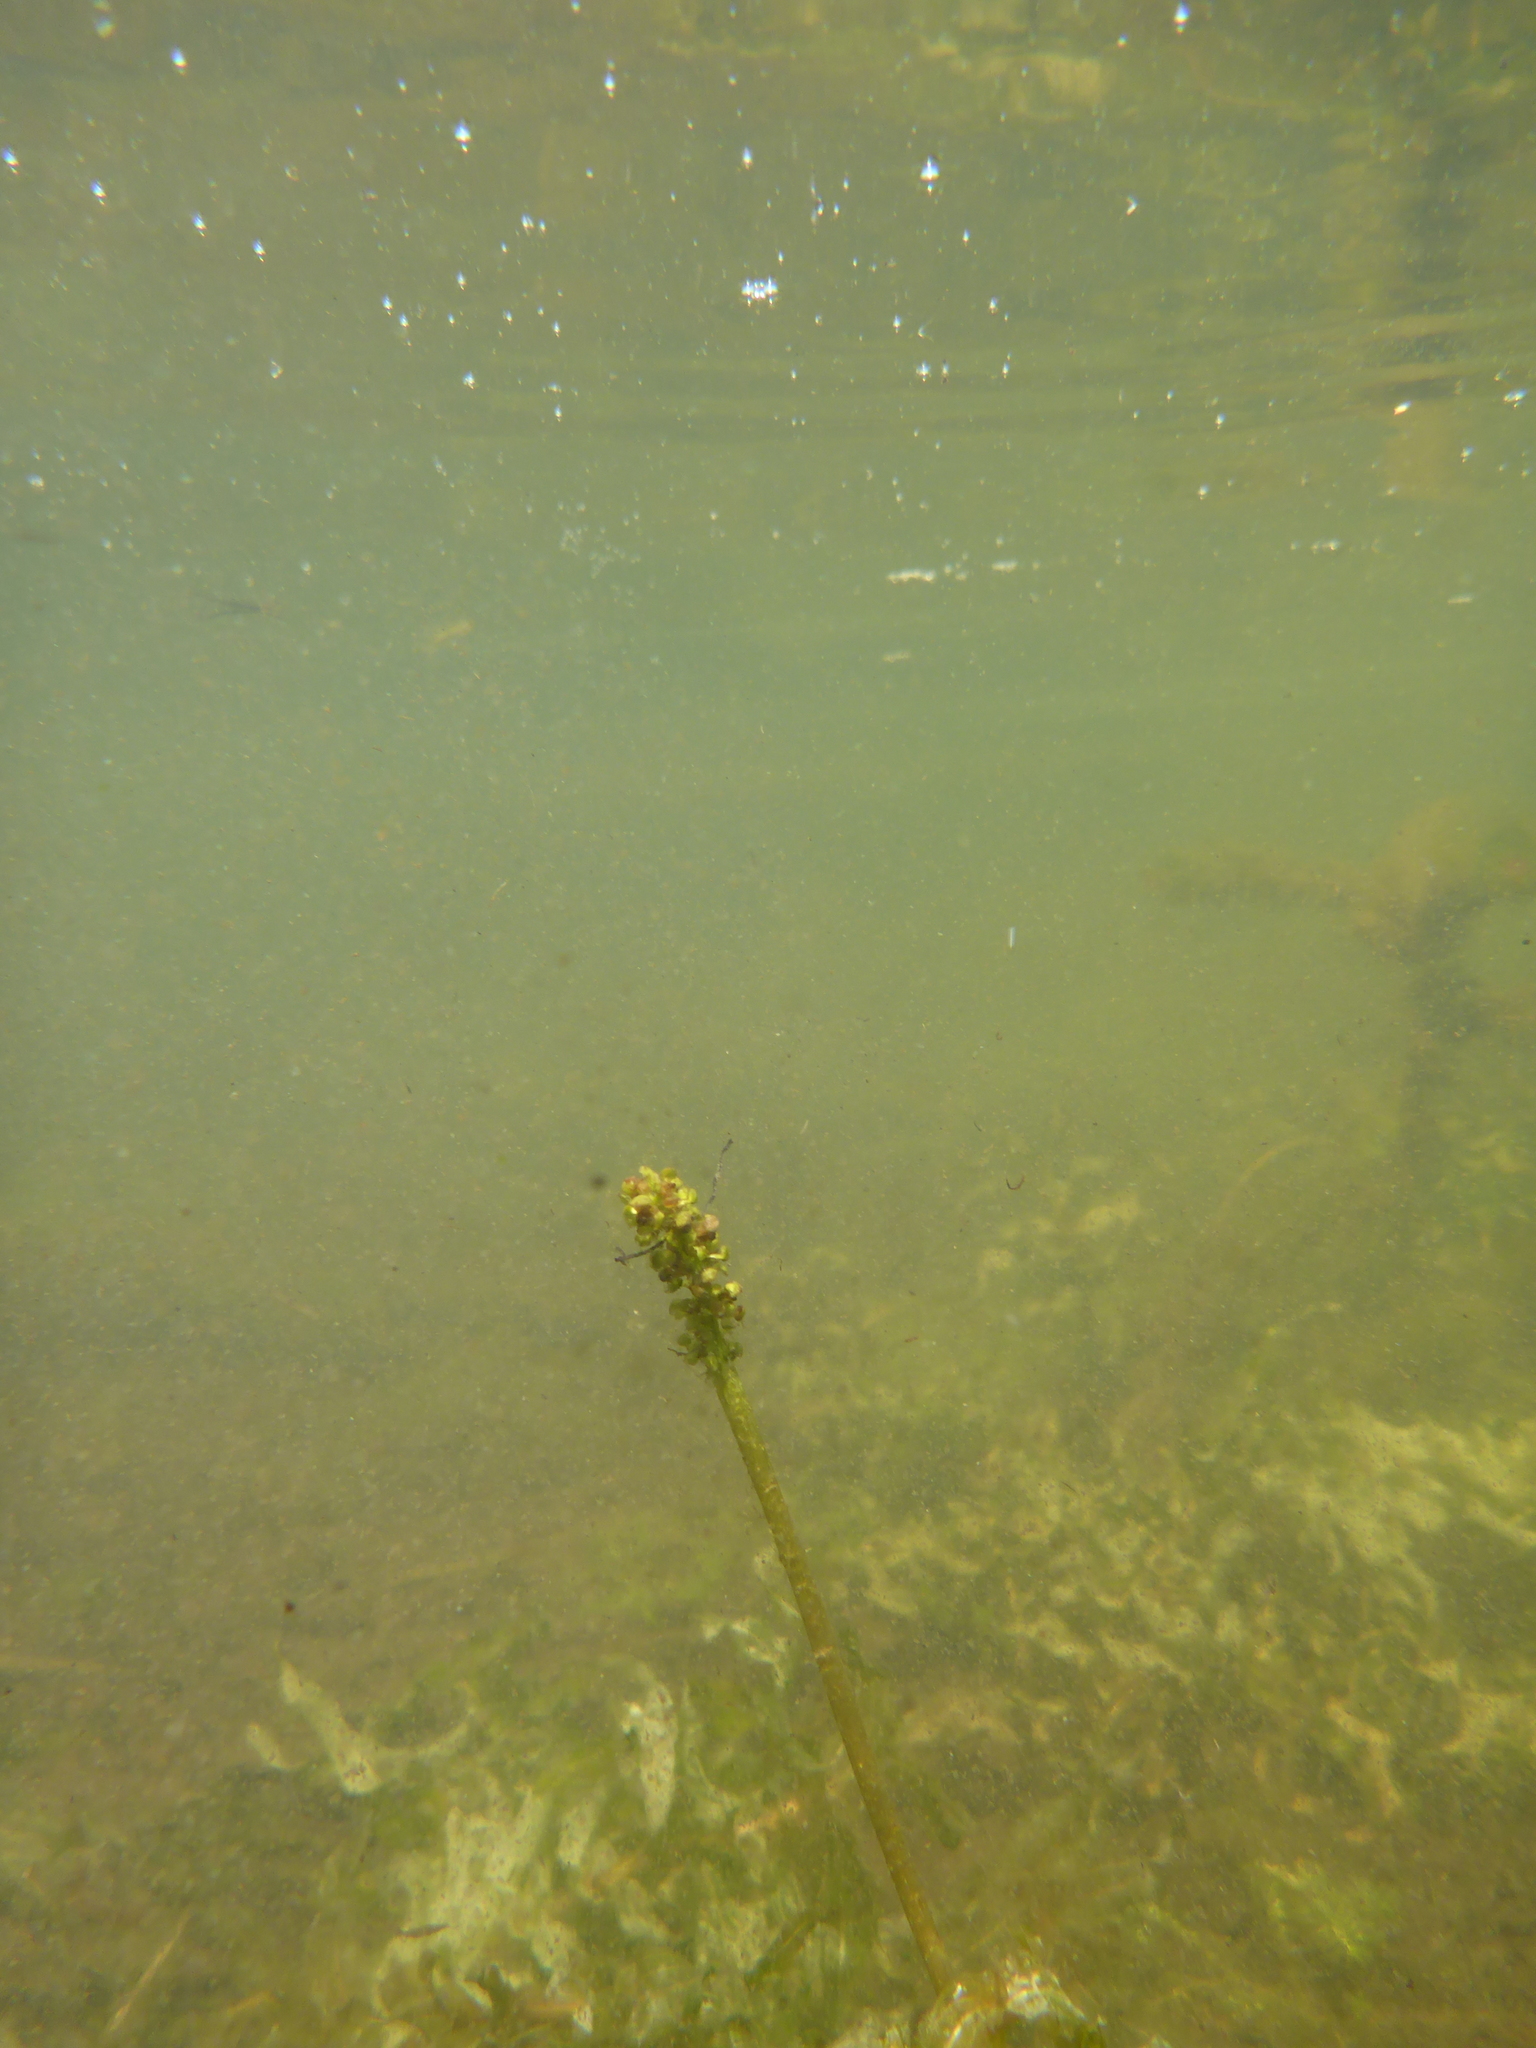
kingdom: Plantae
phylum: Tracheophyta
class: Liliopsida
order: Alismatales
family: Potamogetonaceae
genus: Potamogeton
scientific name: Potamogeton richardsonii
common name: Richardson's pondweed
